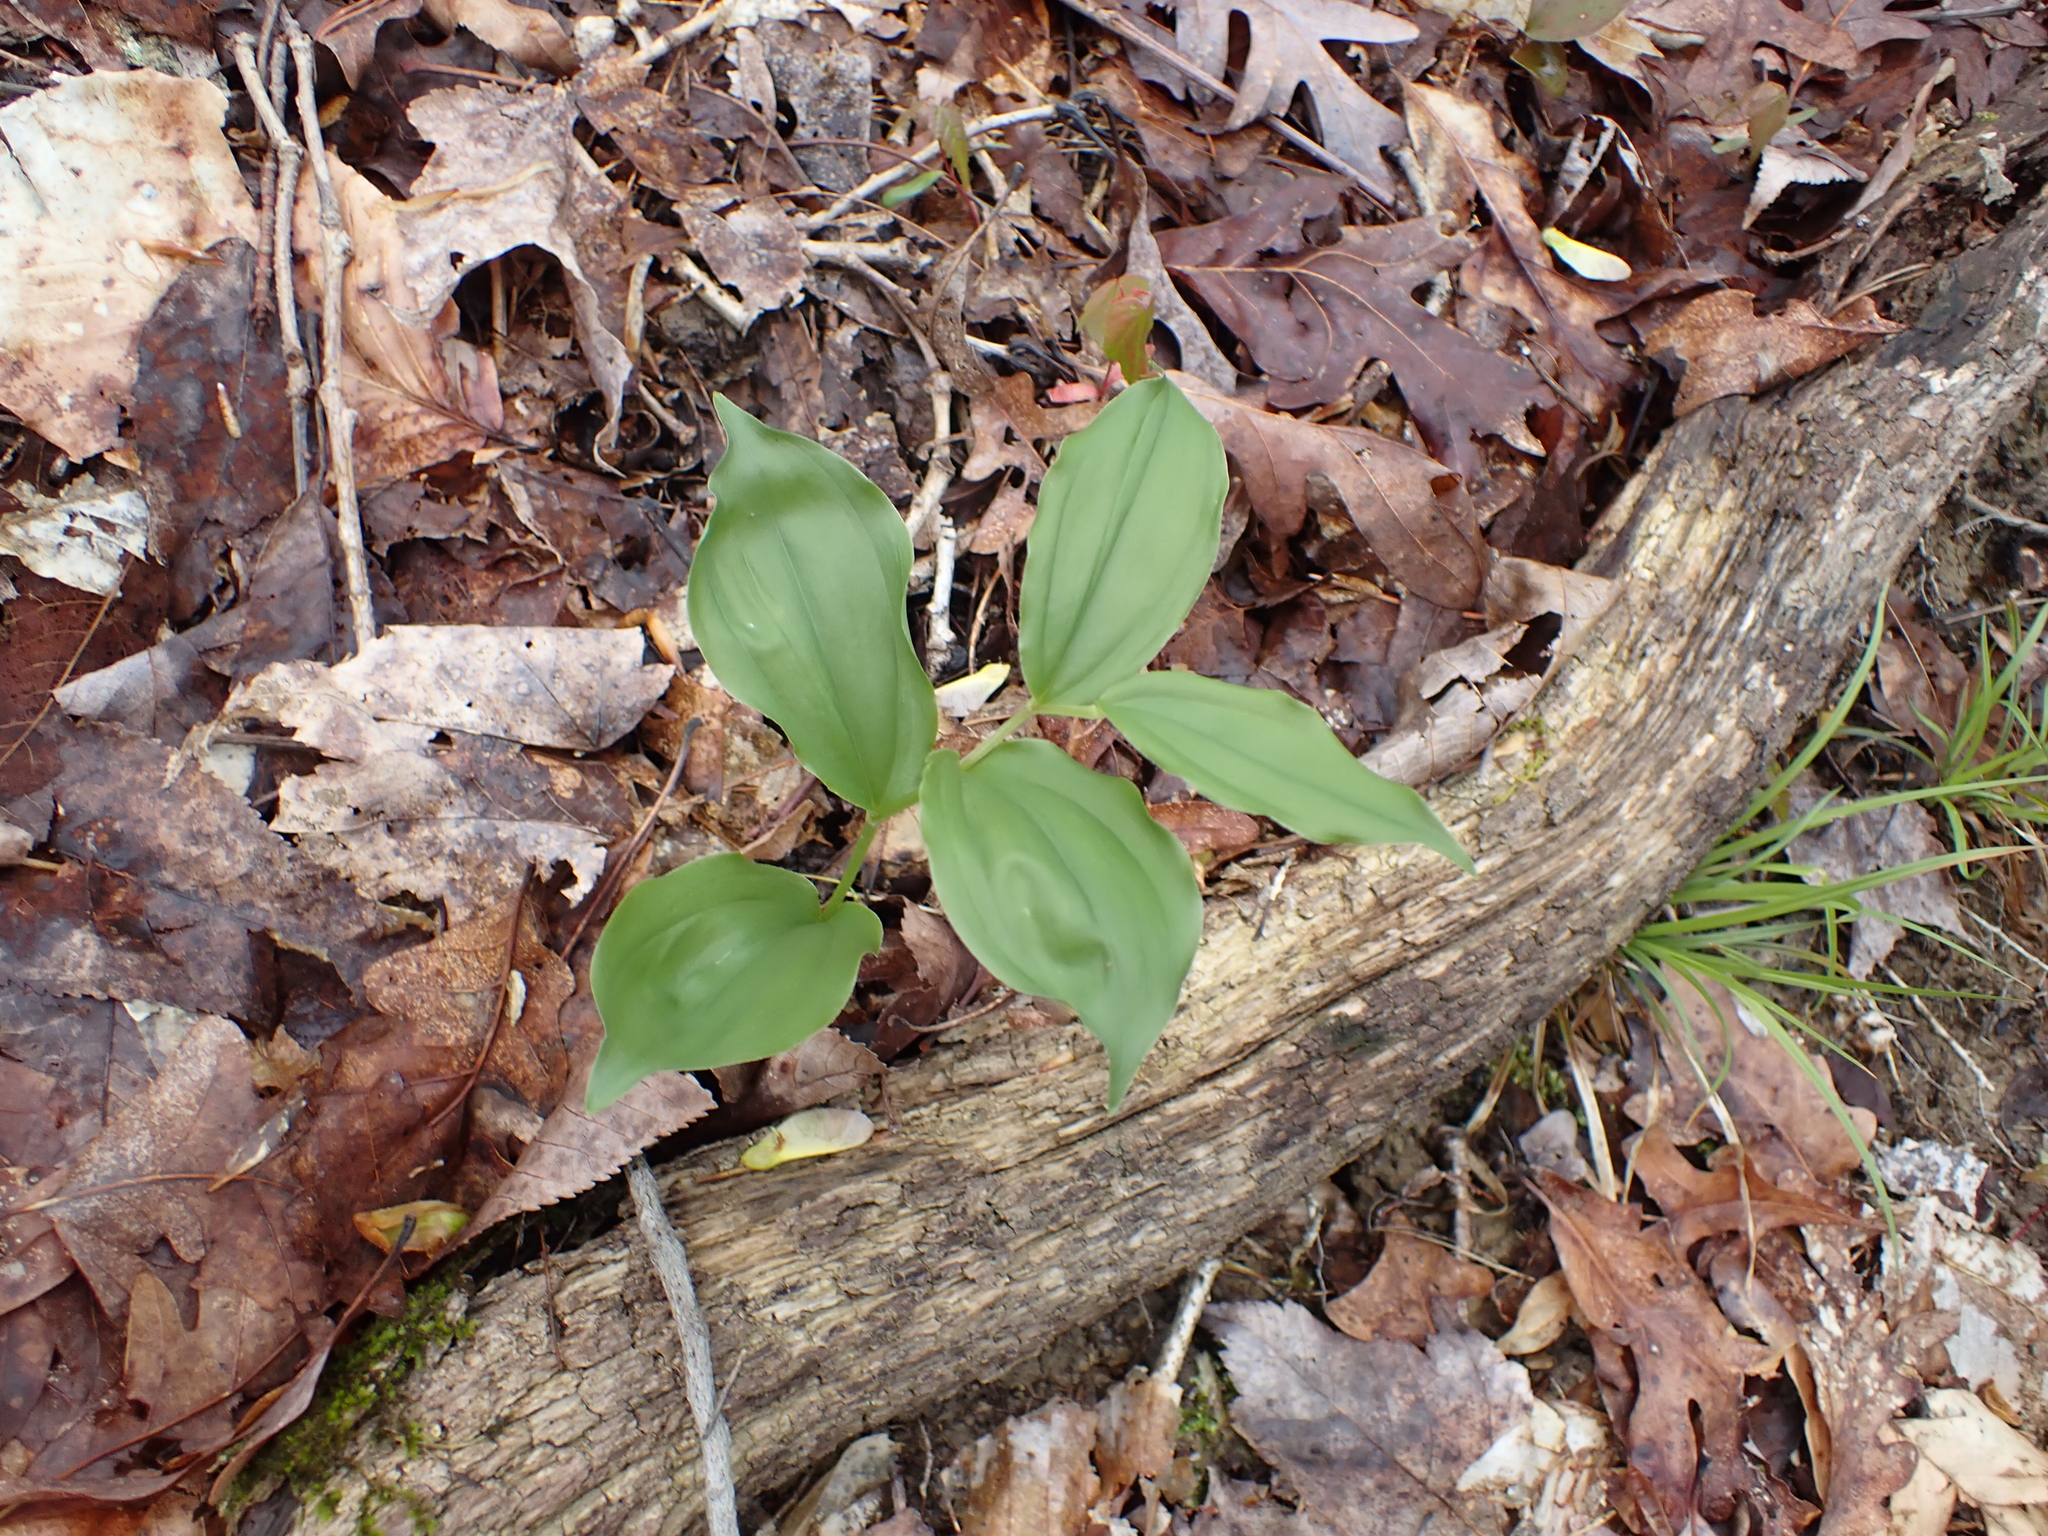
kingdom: Plantae
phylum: Tracheophyta
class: Liliopsida
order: Asparagales
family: Asparagaceae
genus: Maianthemum
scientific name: Maianthemum racemosum
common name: False spikenard
